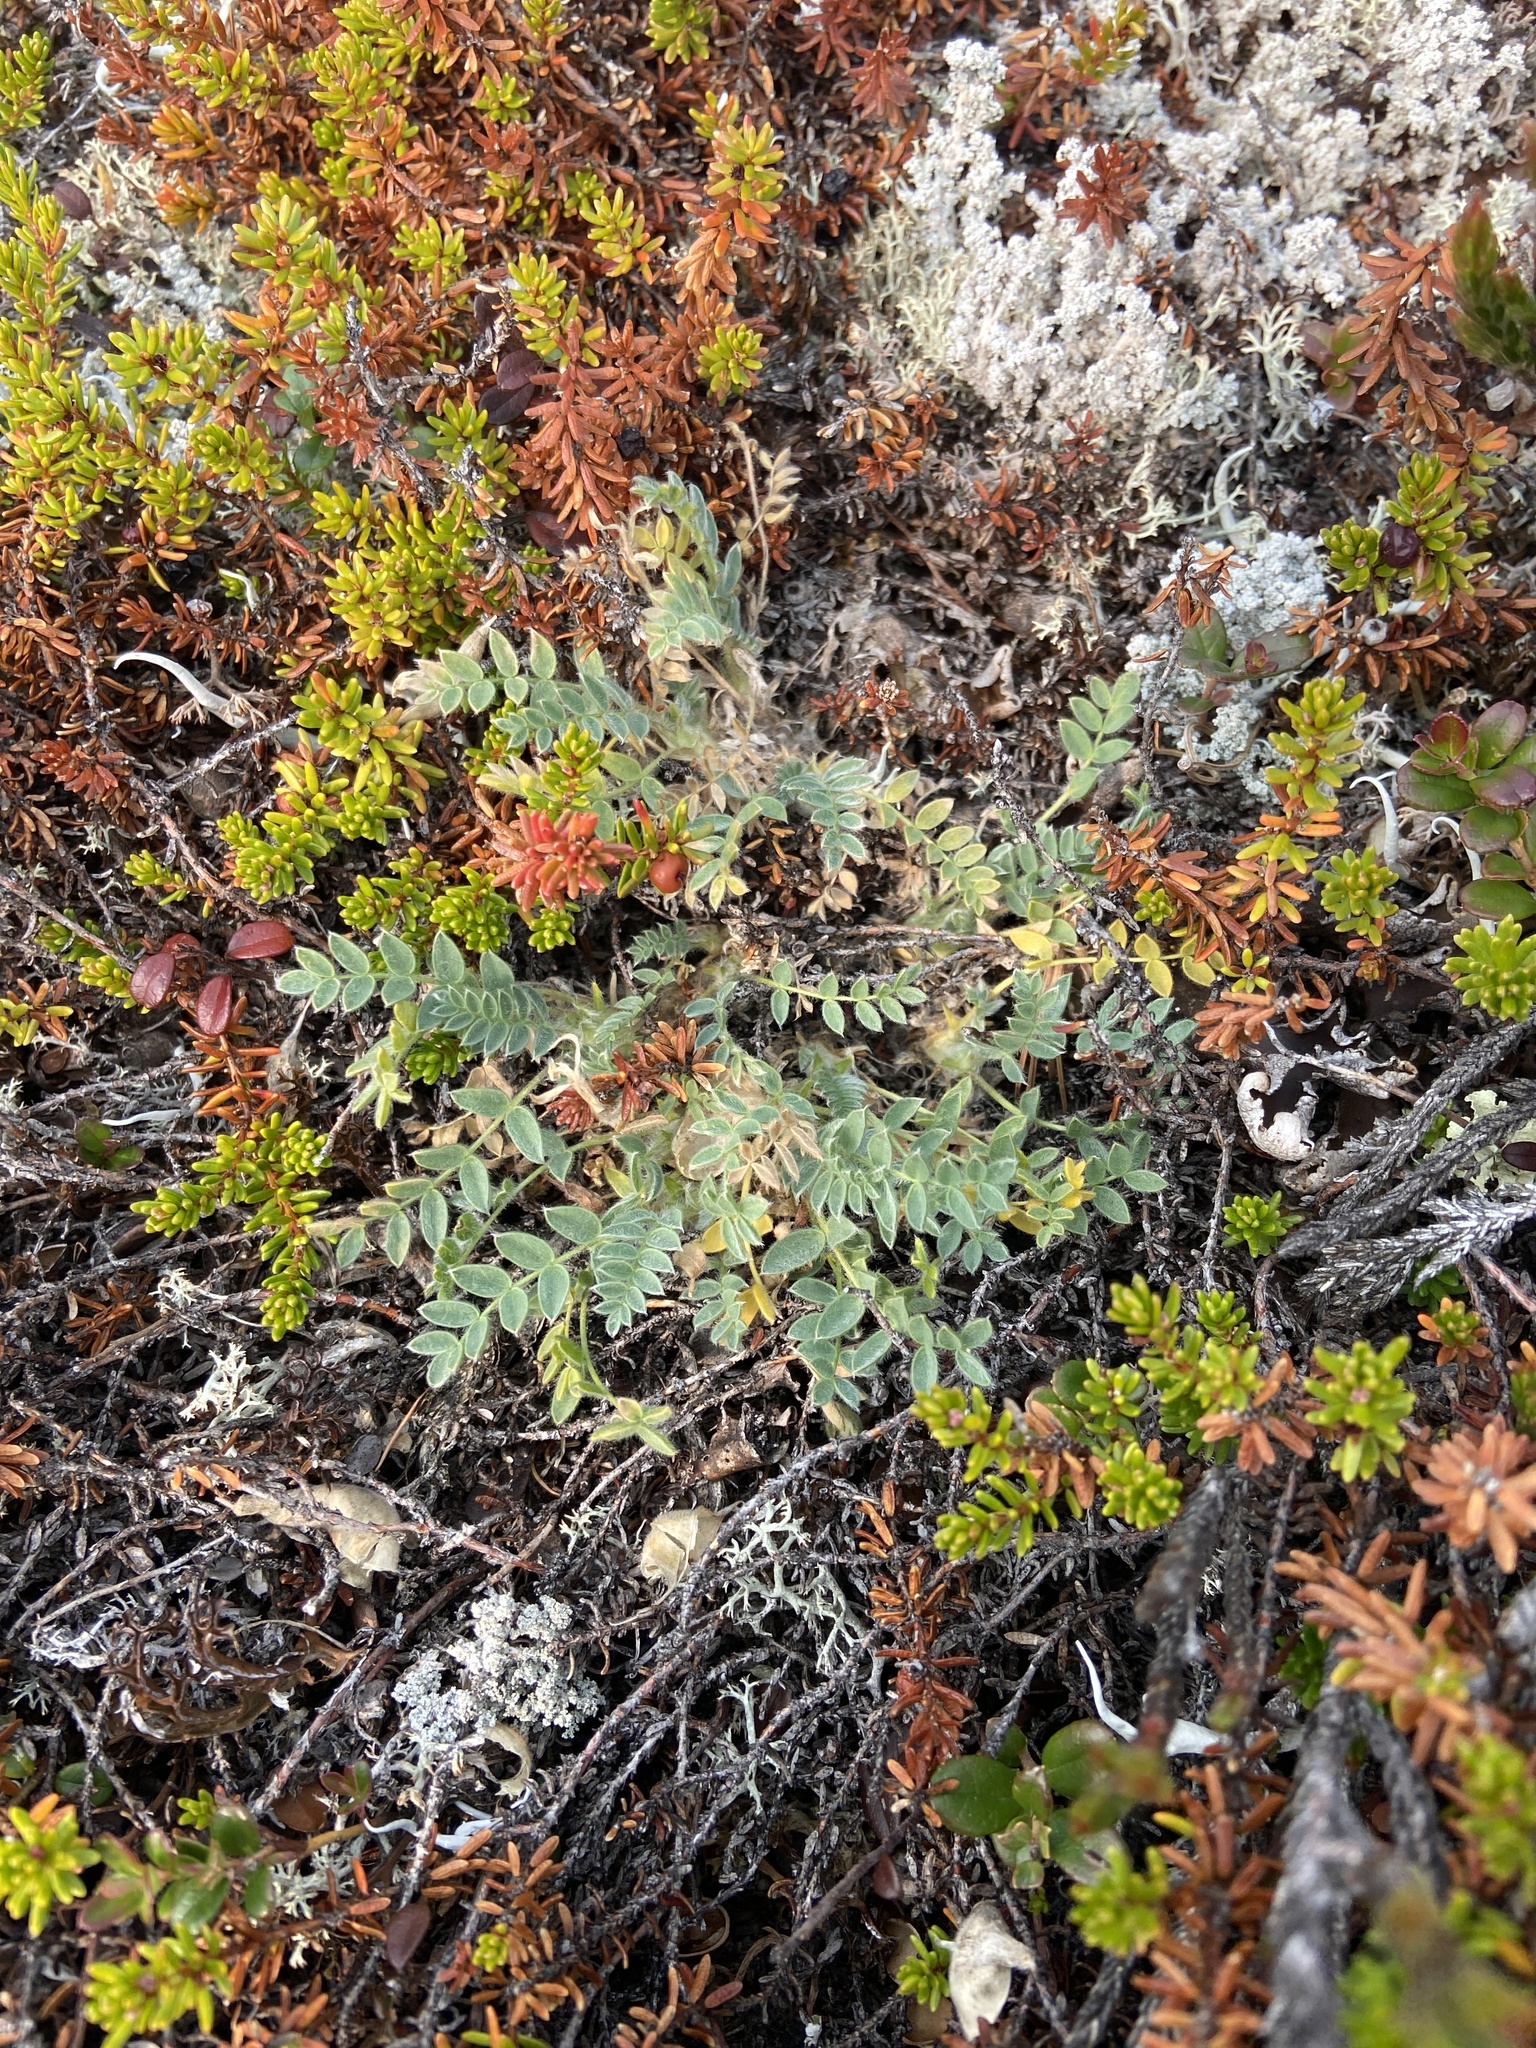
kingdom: Plantae
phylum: Tracheophyta
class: Magnoliopsida
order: Fabales
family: Fabaceae
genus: Oxytropis
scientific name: Oxytropis susumanica
